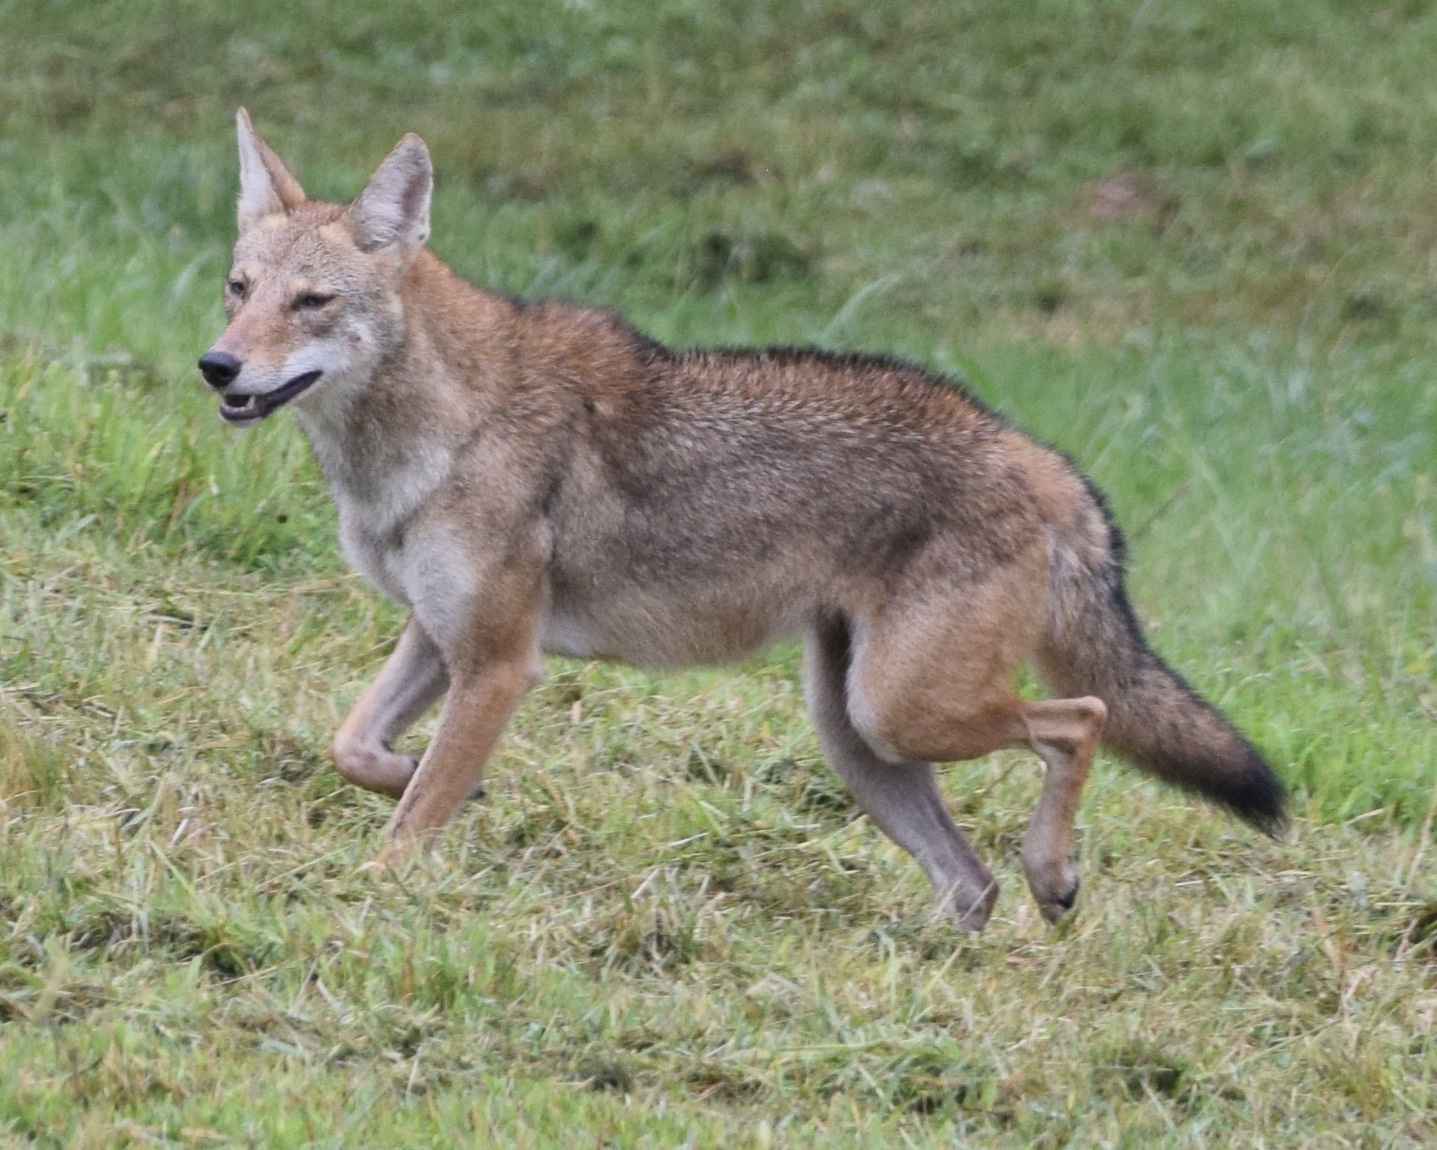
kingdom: Animalia
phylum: Chordata
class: Mammalia
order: Carnivora
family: Canidae
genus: Canis
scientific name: Canis latrans
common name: Coyote
